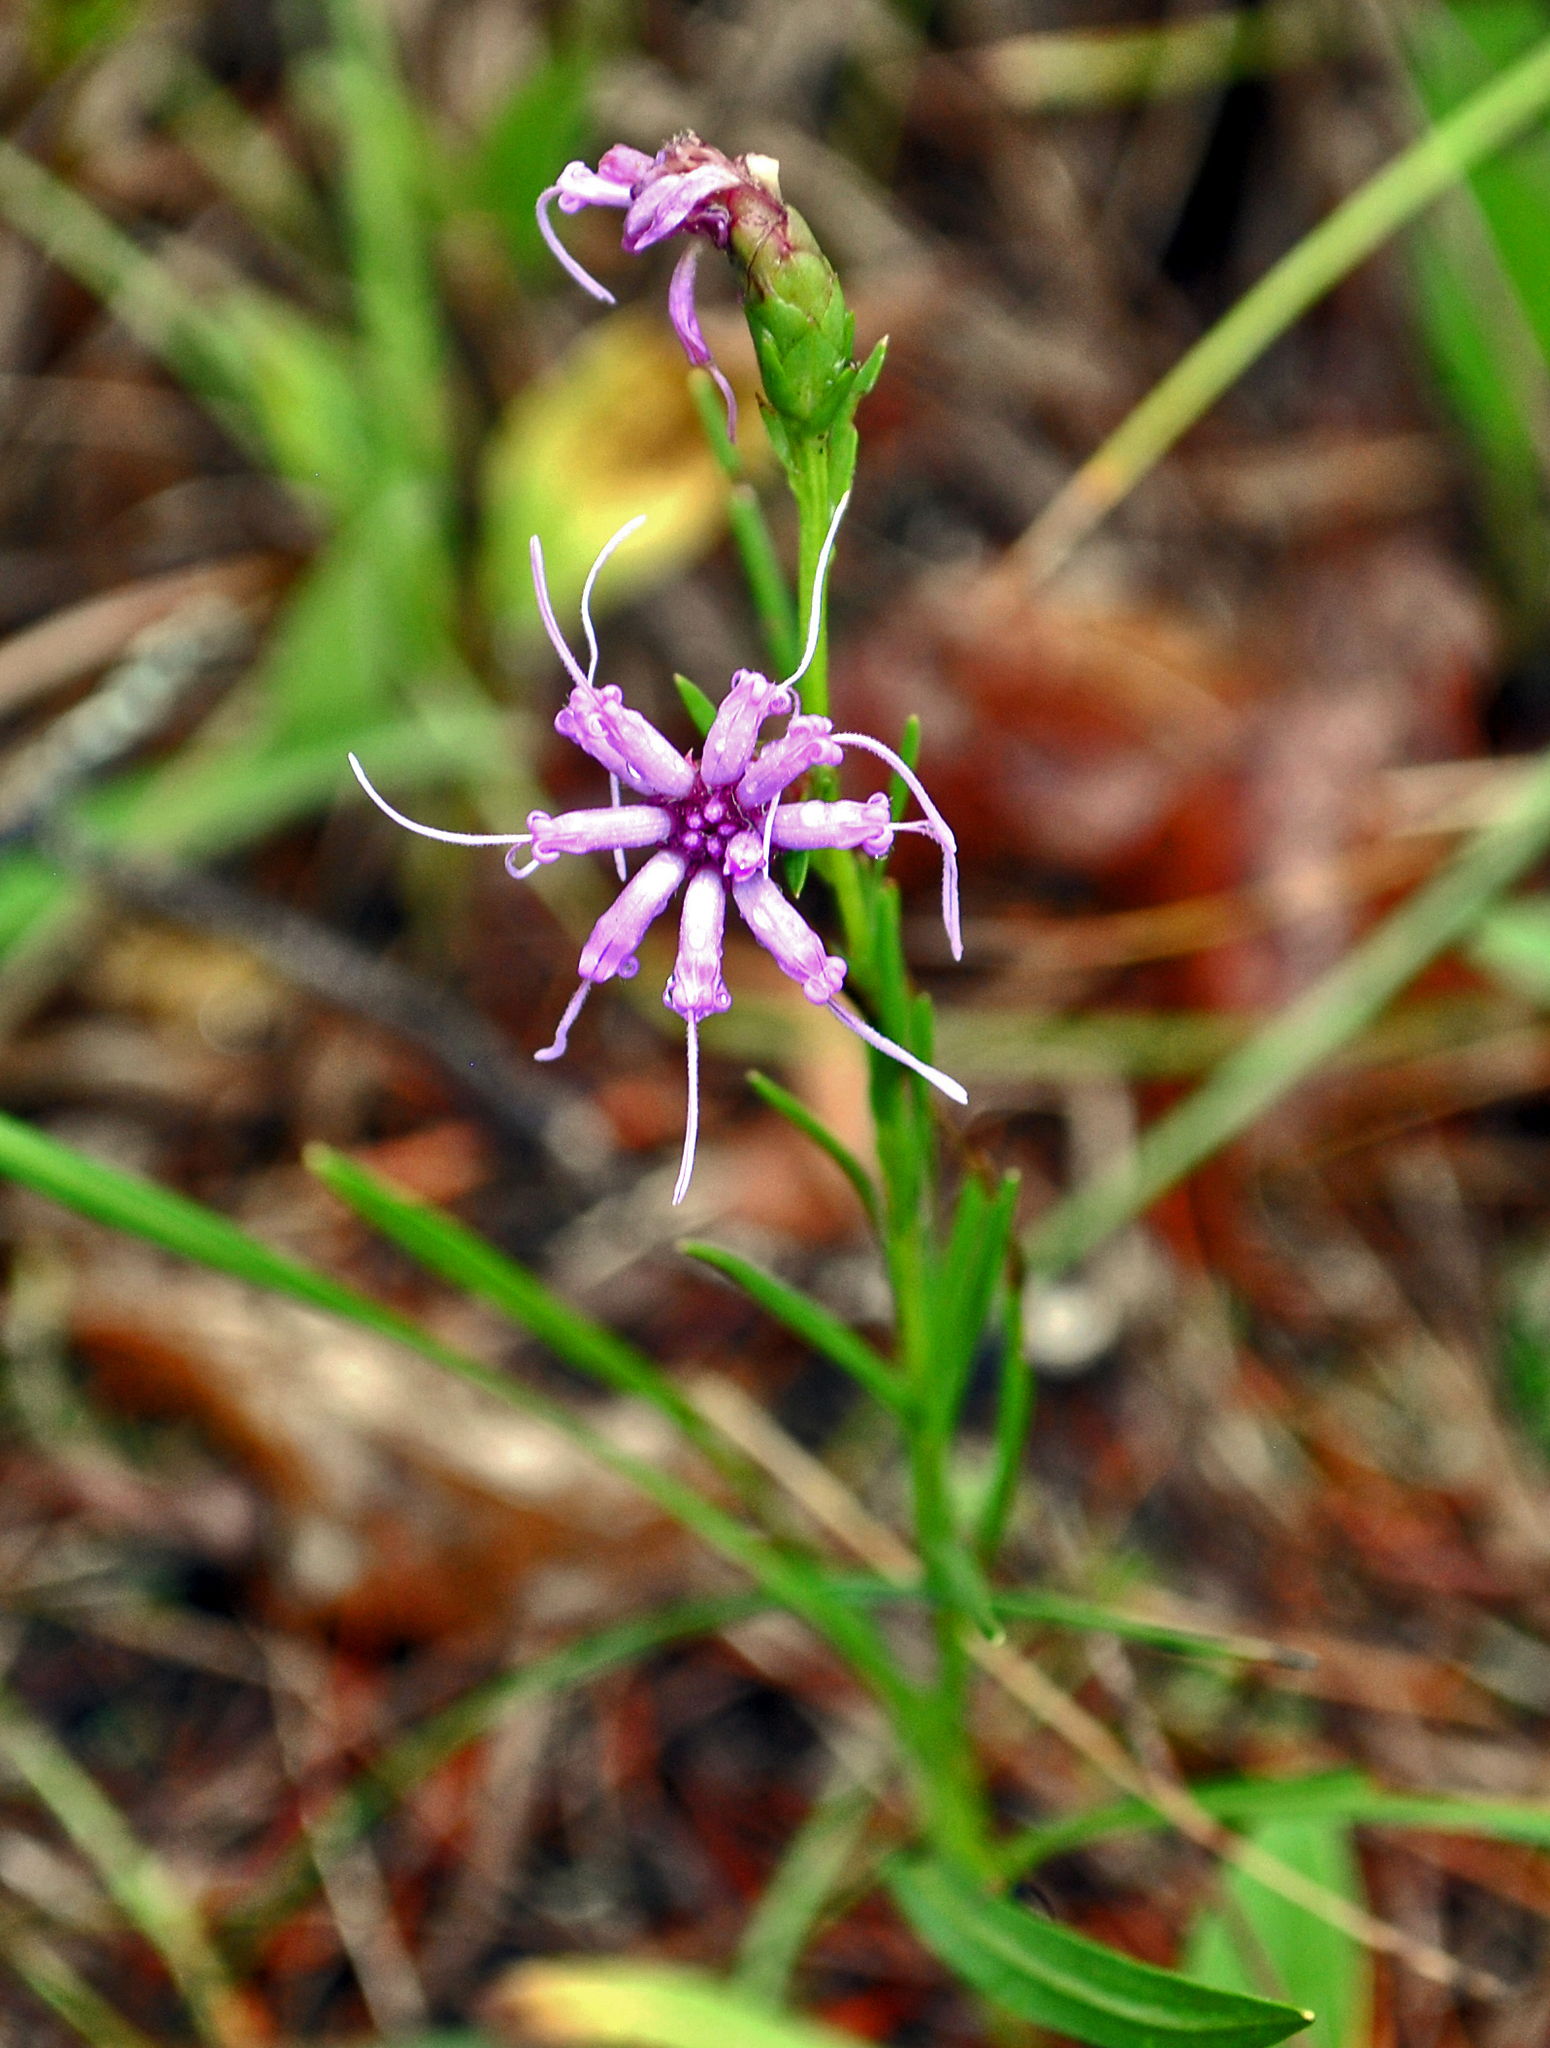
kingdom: Plantae
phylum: Tracheophyta
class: Magnoliopsida
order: Asterales
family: Asteraceae
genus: Liatris
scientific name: Liatris cylindracea
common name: Few-head blazingstar
